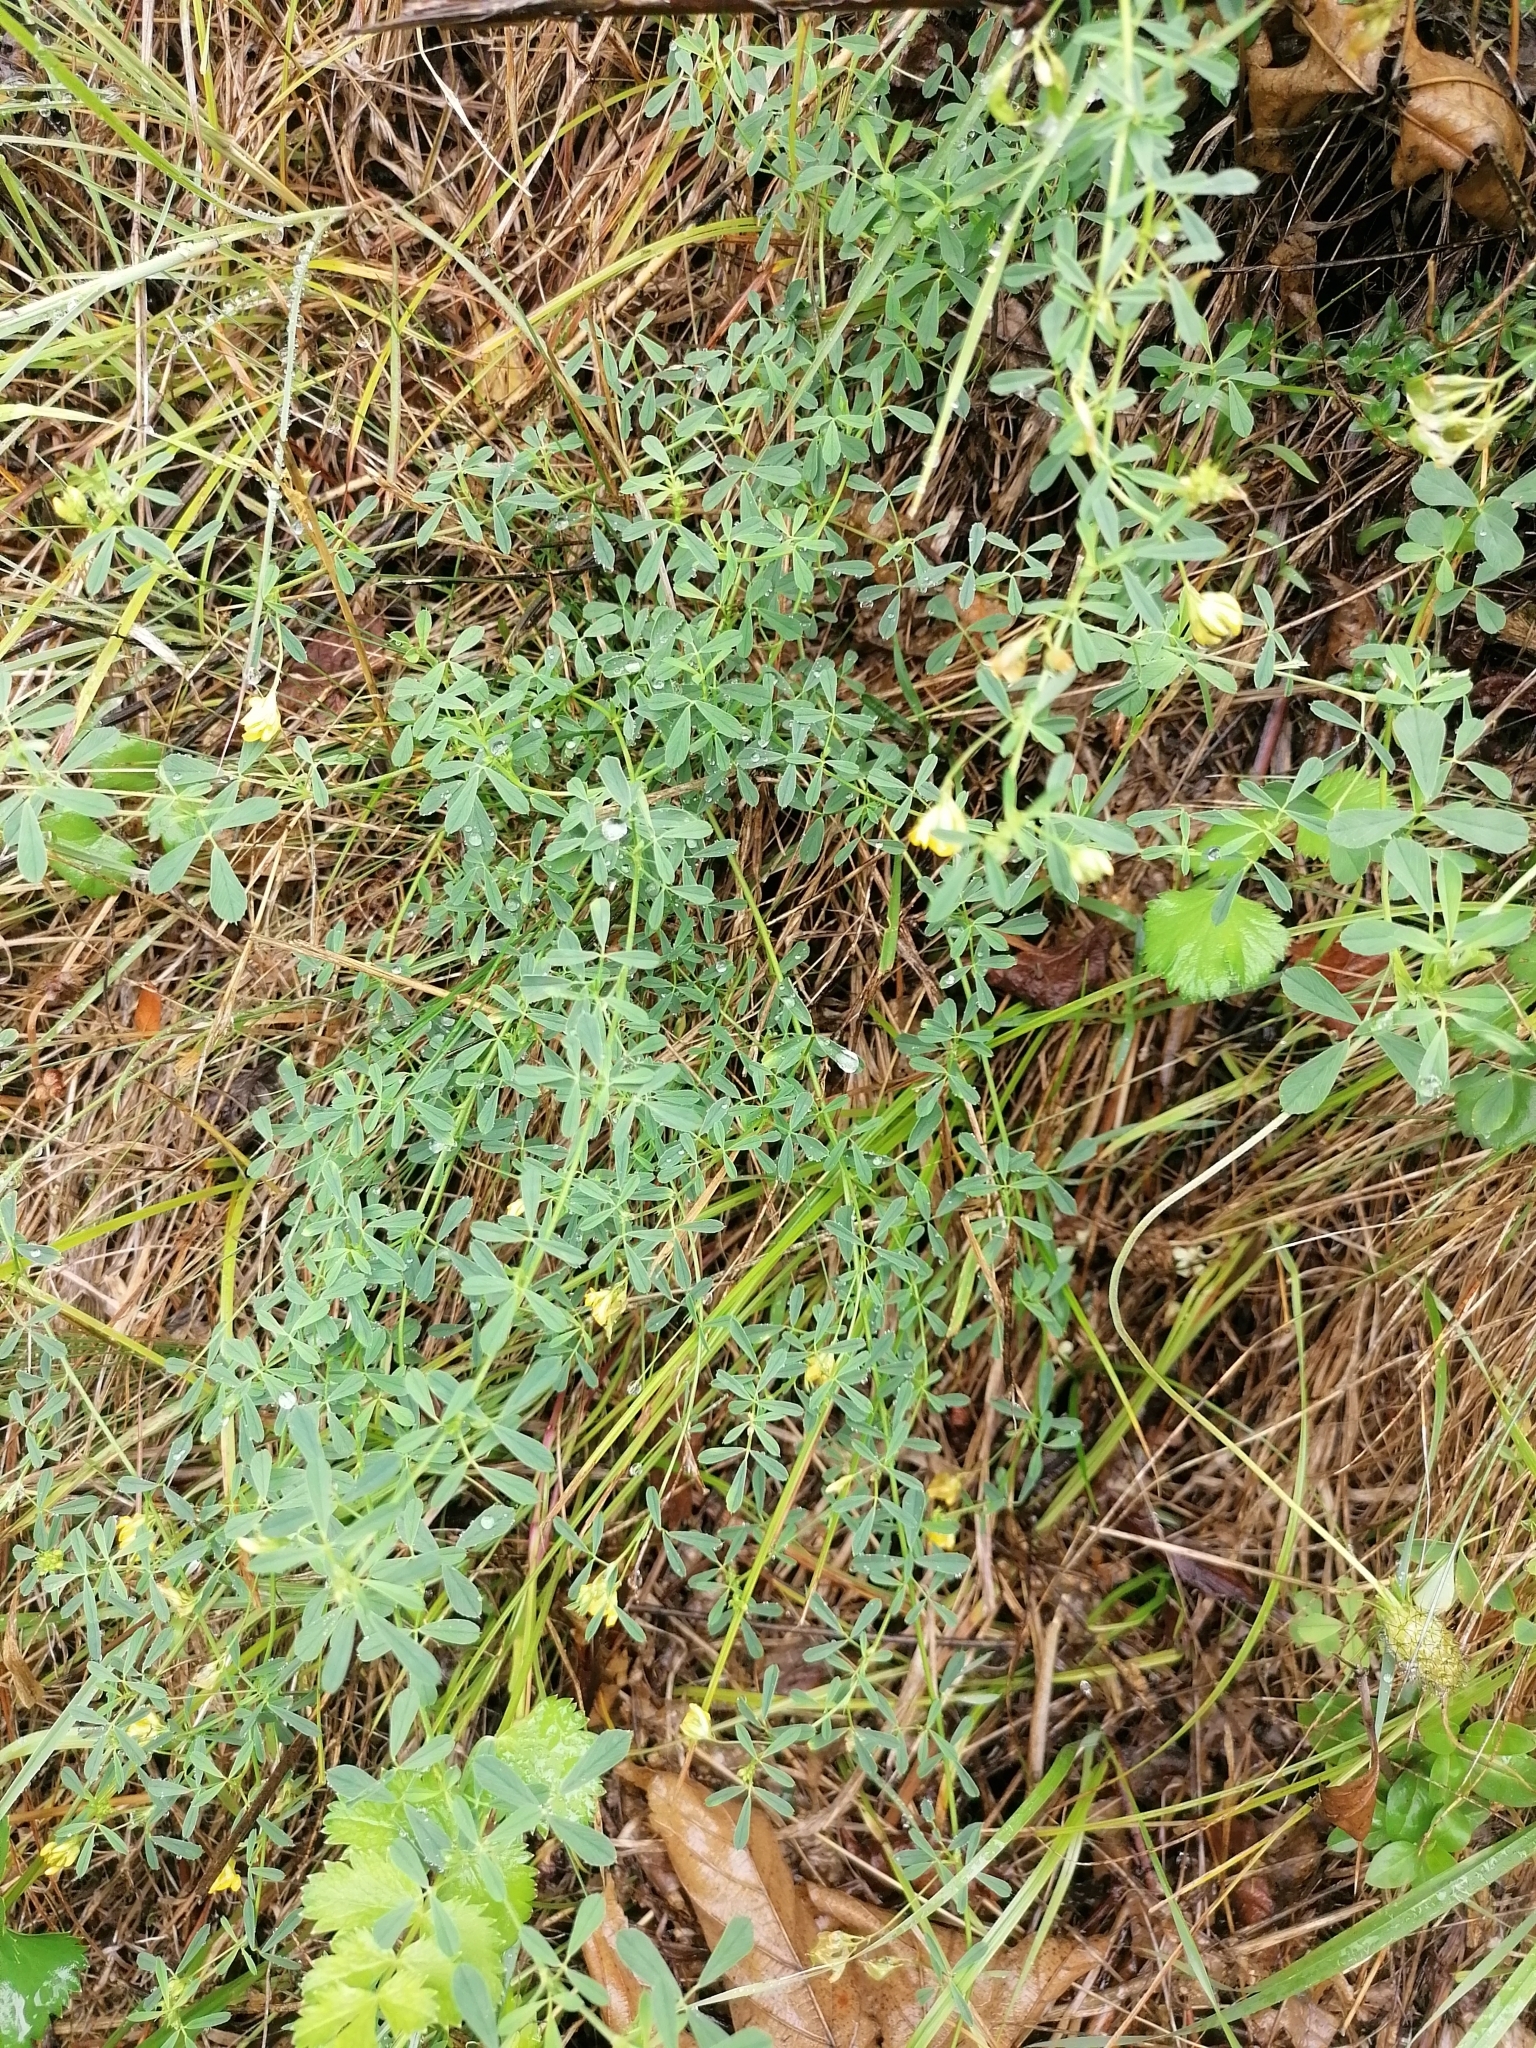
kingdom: Plantae
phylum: Tracheophyta
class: Magnoliopsida
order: Fabales
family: Fabaceae
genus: Medicago
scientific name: Medicago falcata
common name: Sickle medick
